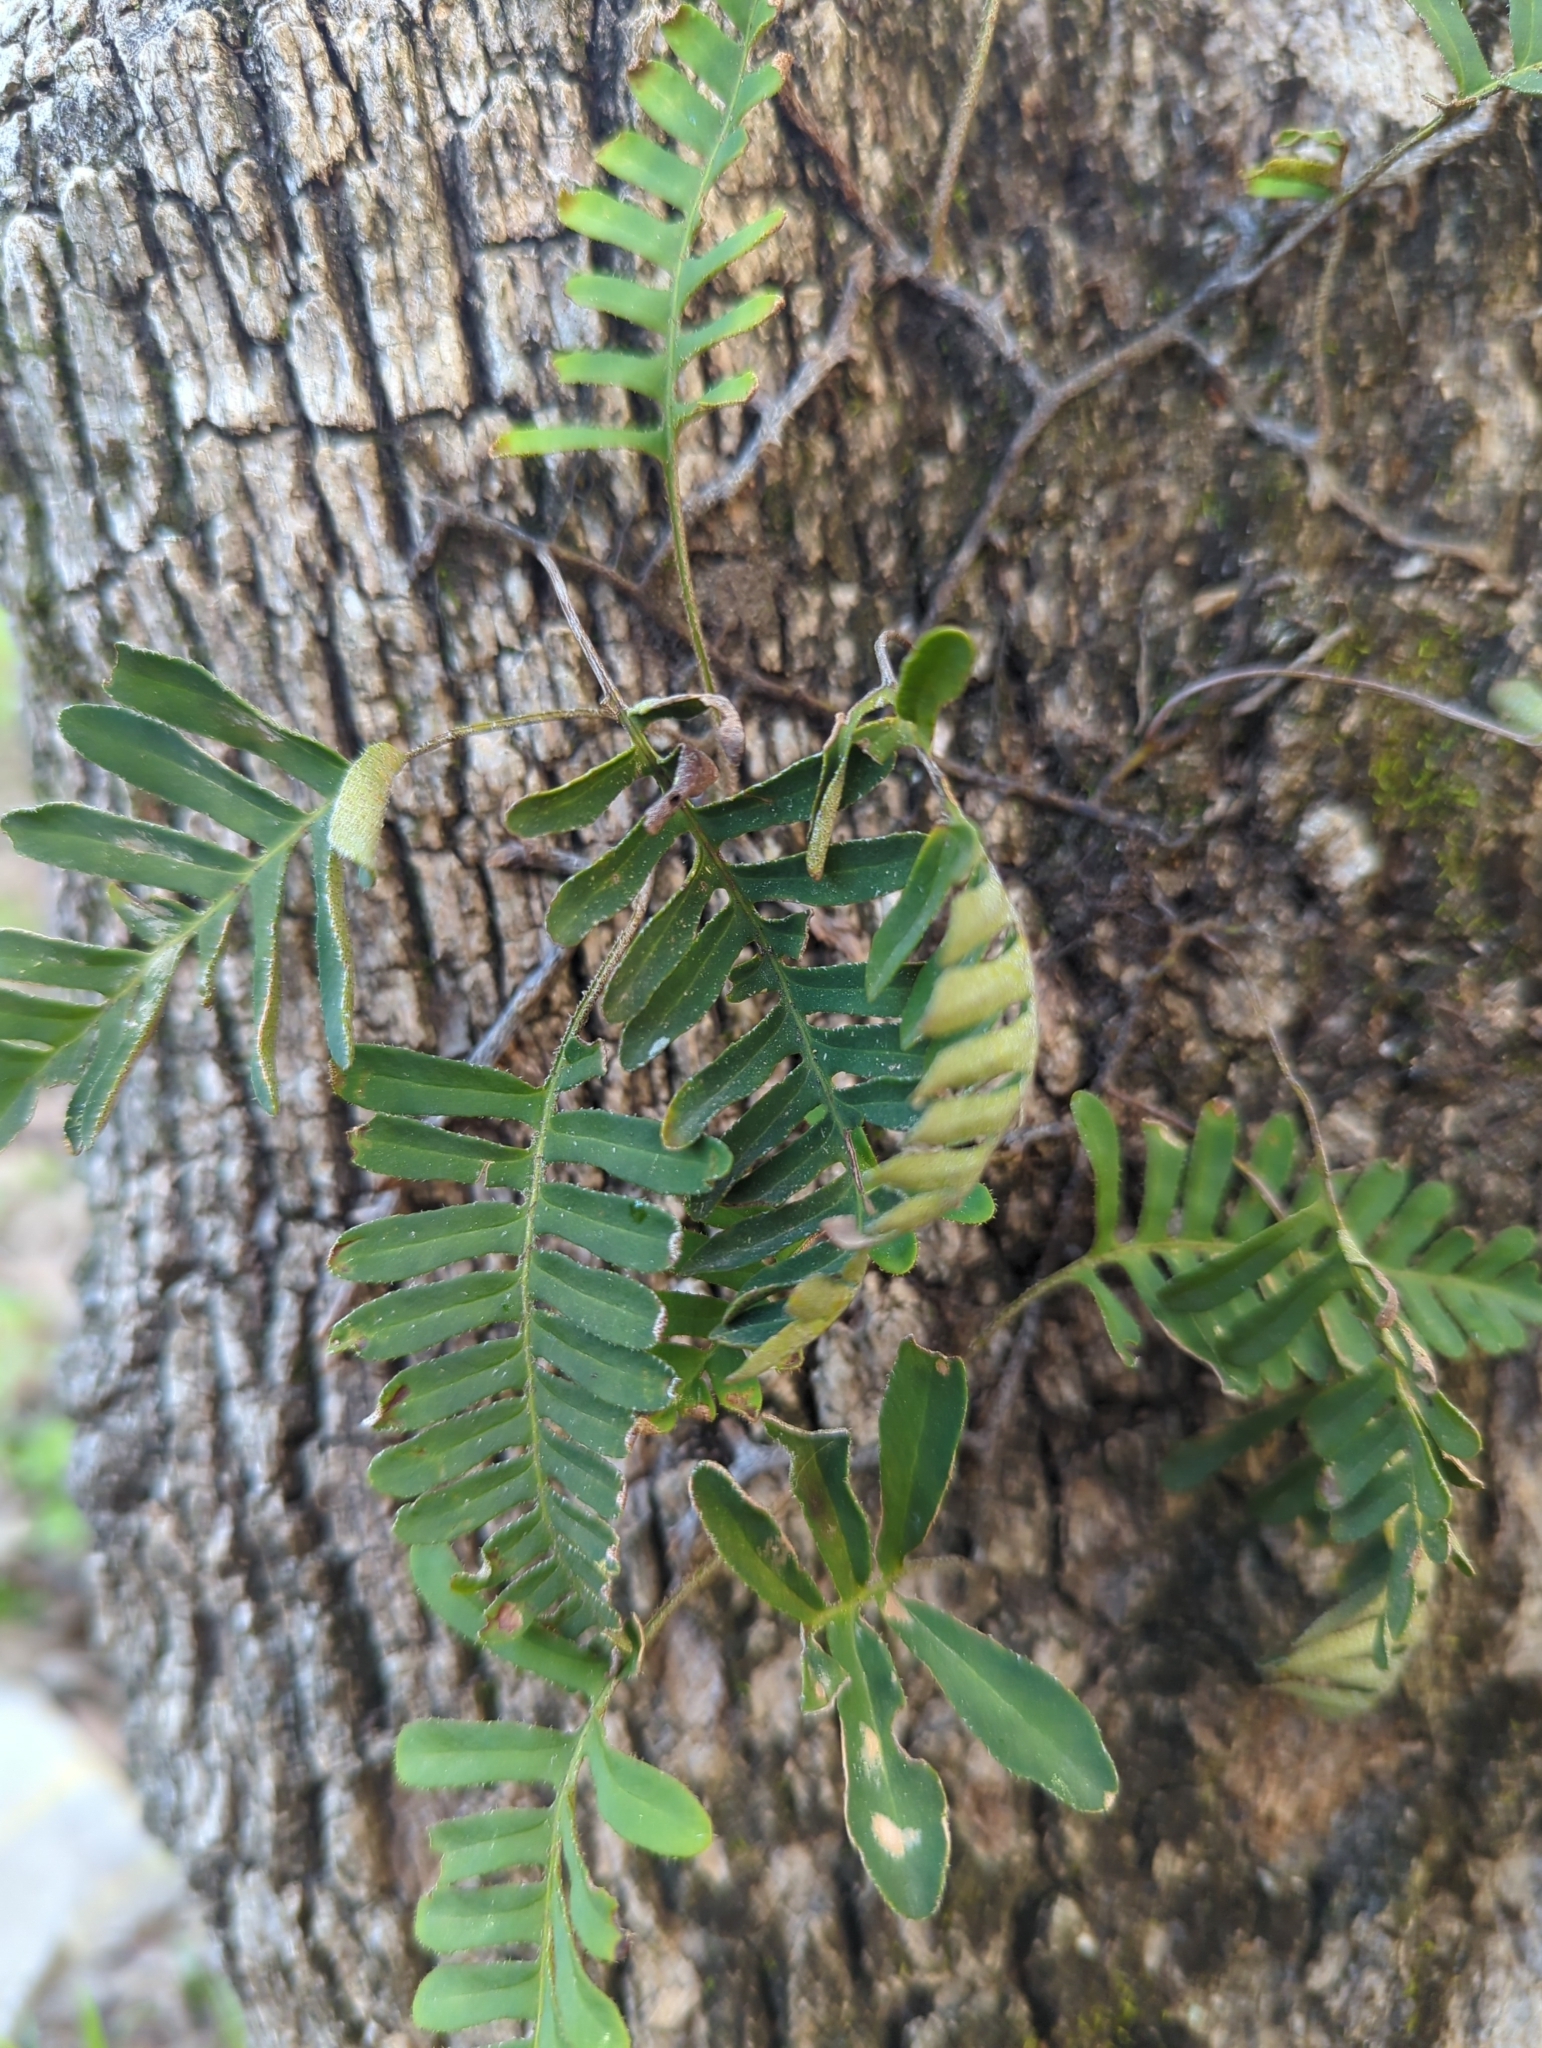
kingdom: Plantae
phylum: Tracheophyta
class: Polypodiopsida
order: Polypodiales
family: Polypodiaceae
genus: Pleopeltis
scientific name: Pleopeltis michauxiana
